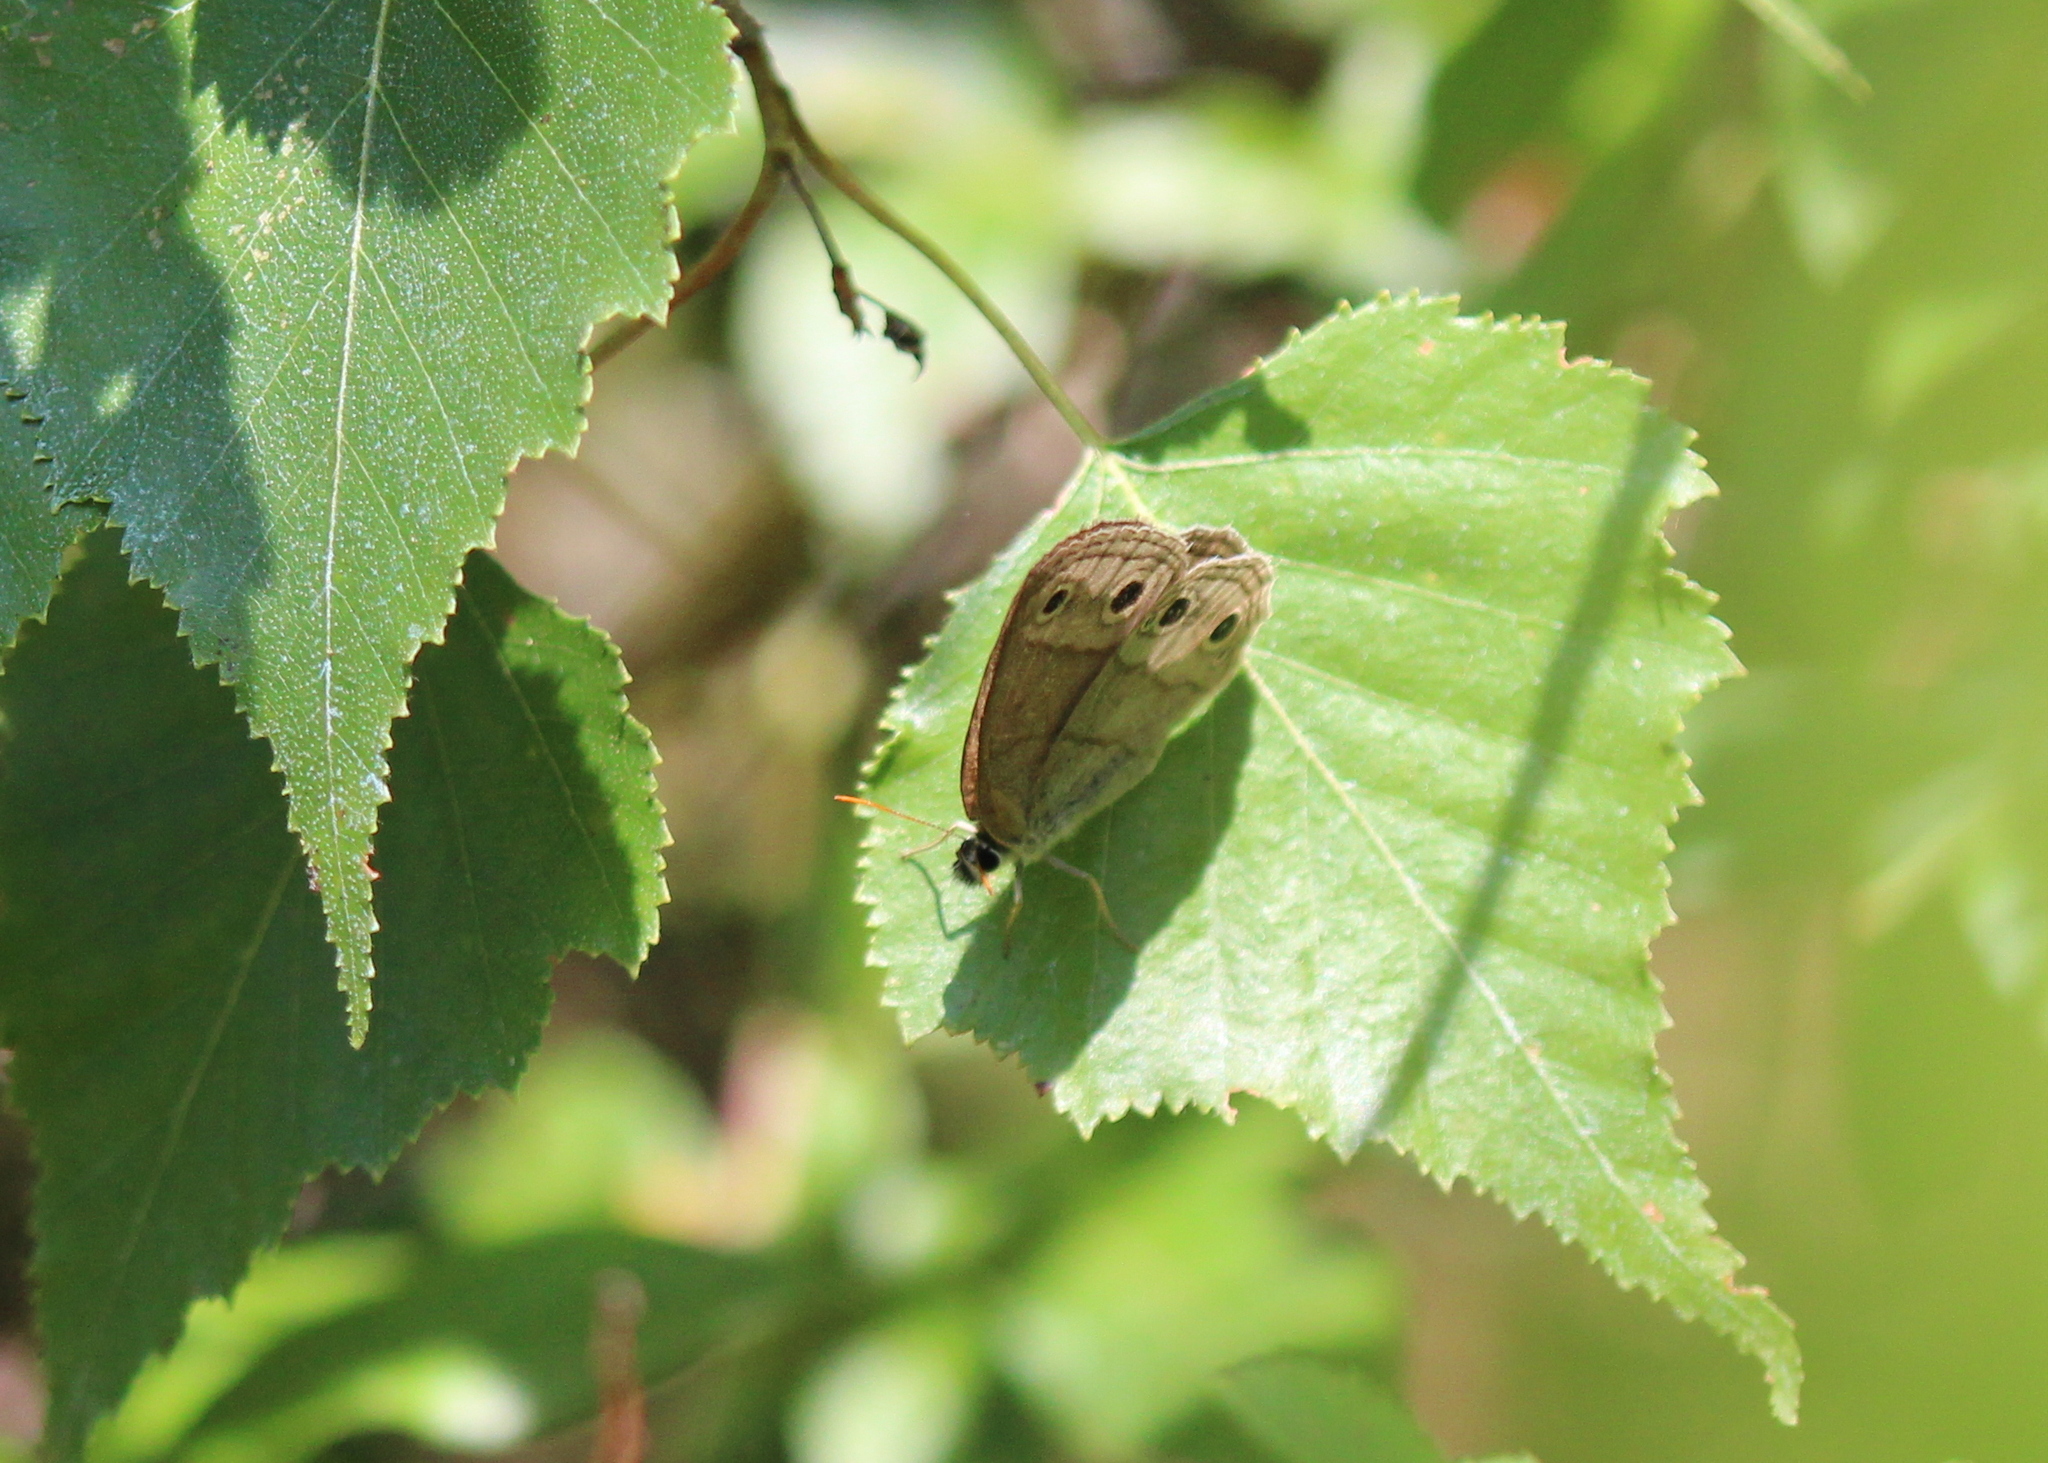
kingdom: Animalia
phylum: Arthropoda
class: Insecta
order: Lepidoptera
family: Nymphalidae
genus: Euptychia
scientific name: Euptychia cymela
